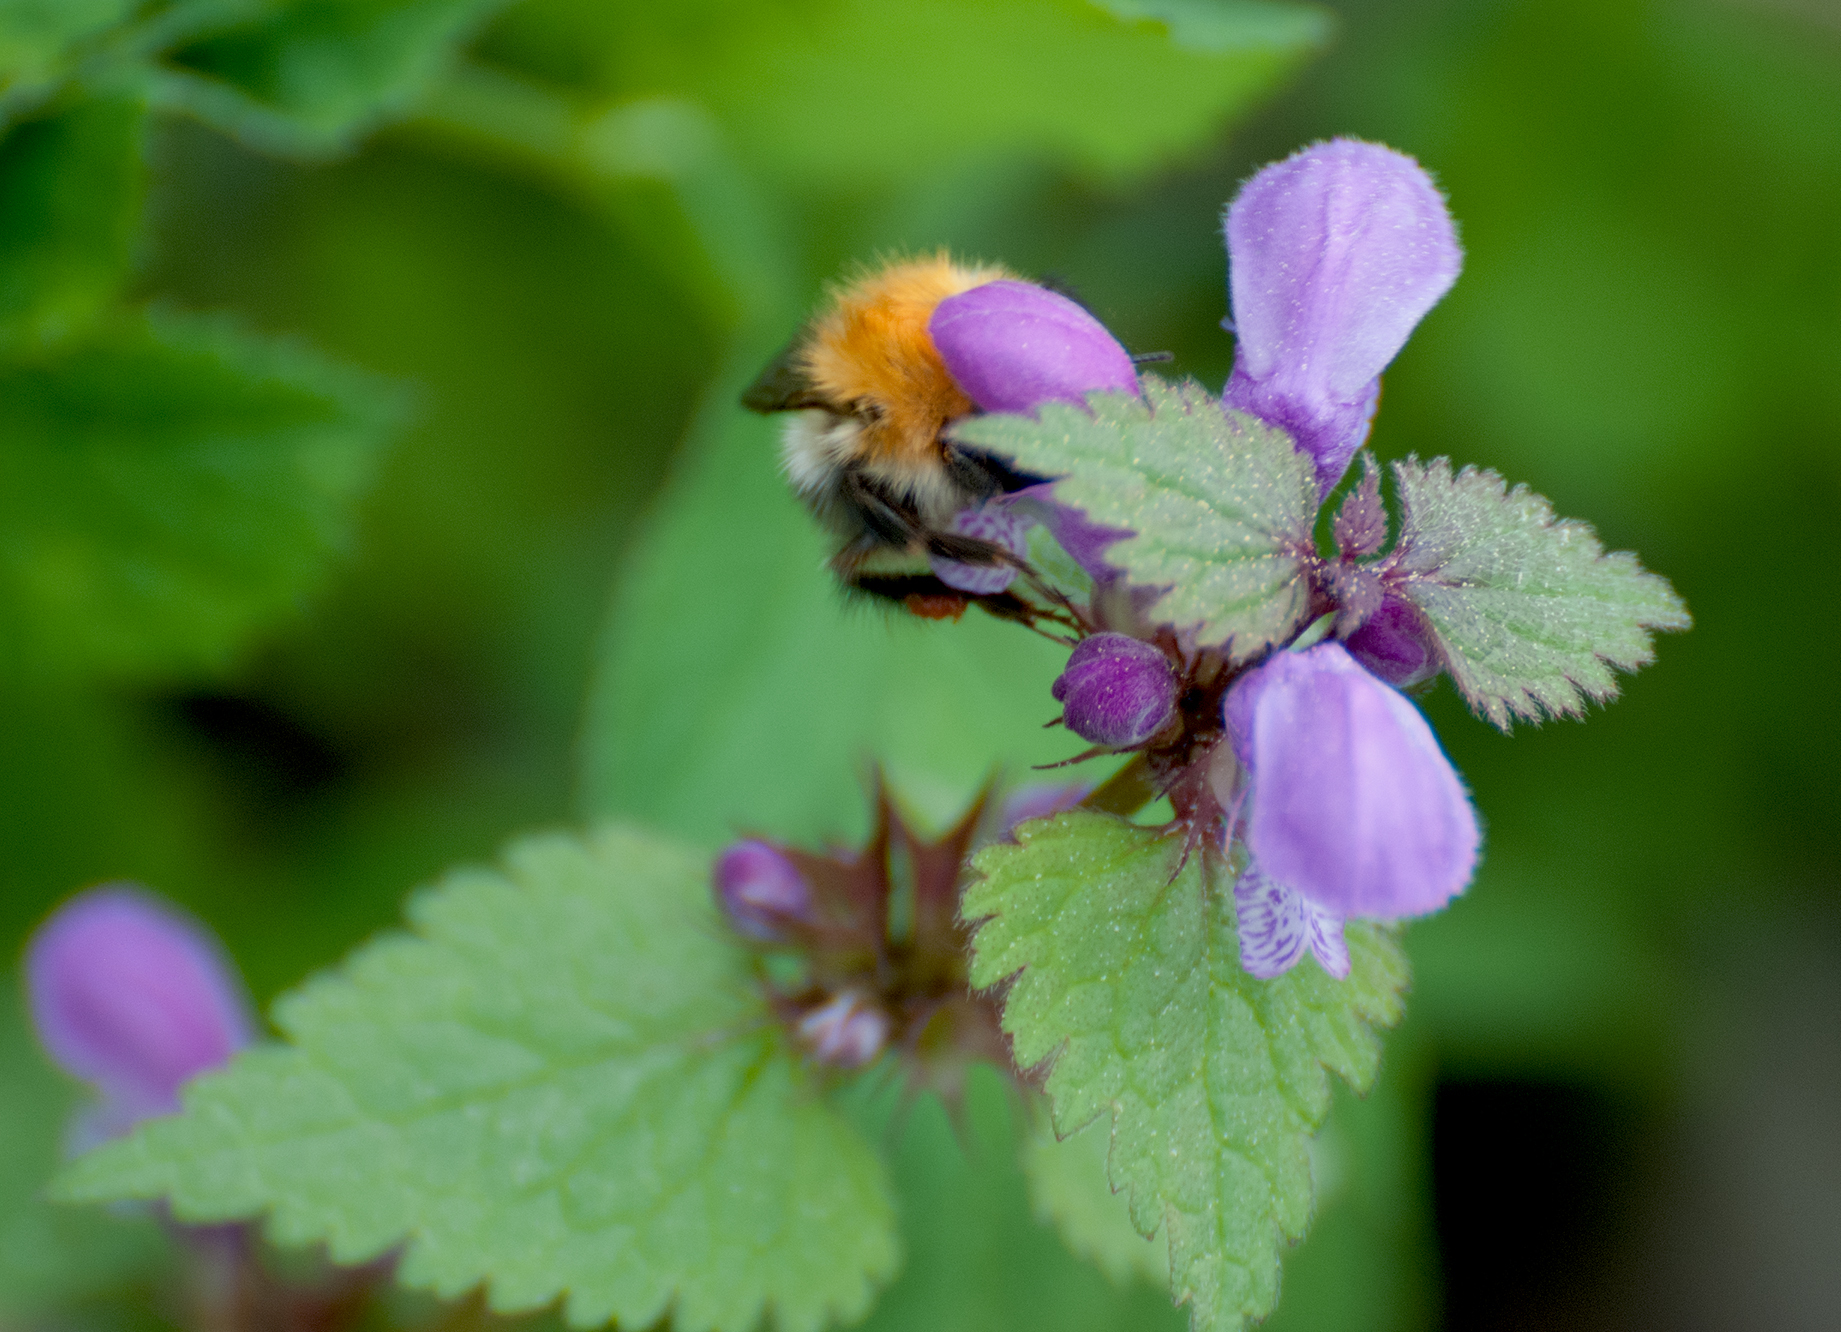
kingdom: Plantae
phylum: Tracheophyta
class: Magnoliopsida
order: Lamiales
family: Lamiaceae
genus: Lamium
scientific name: Lamium maculatum
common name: Spotted dead-nettle
